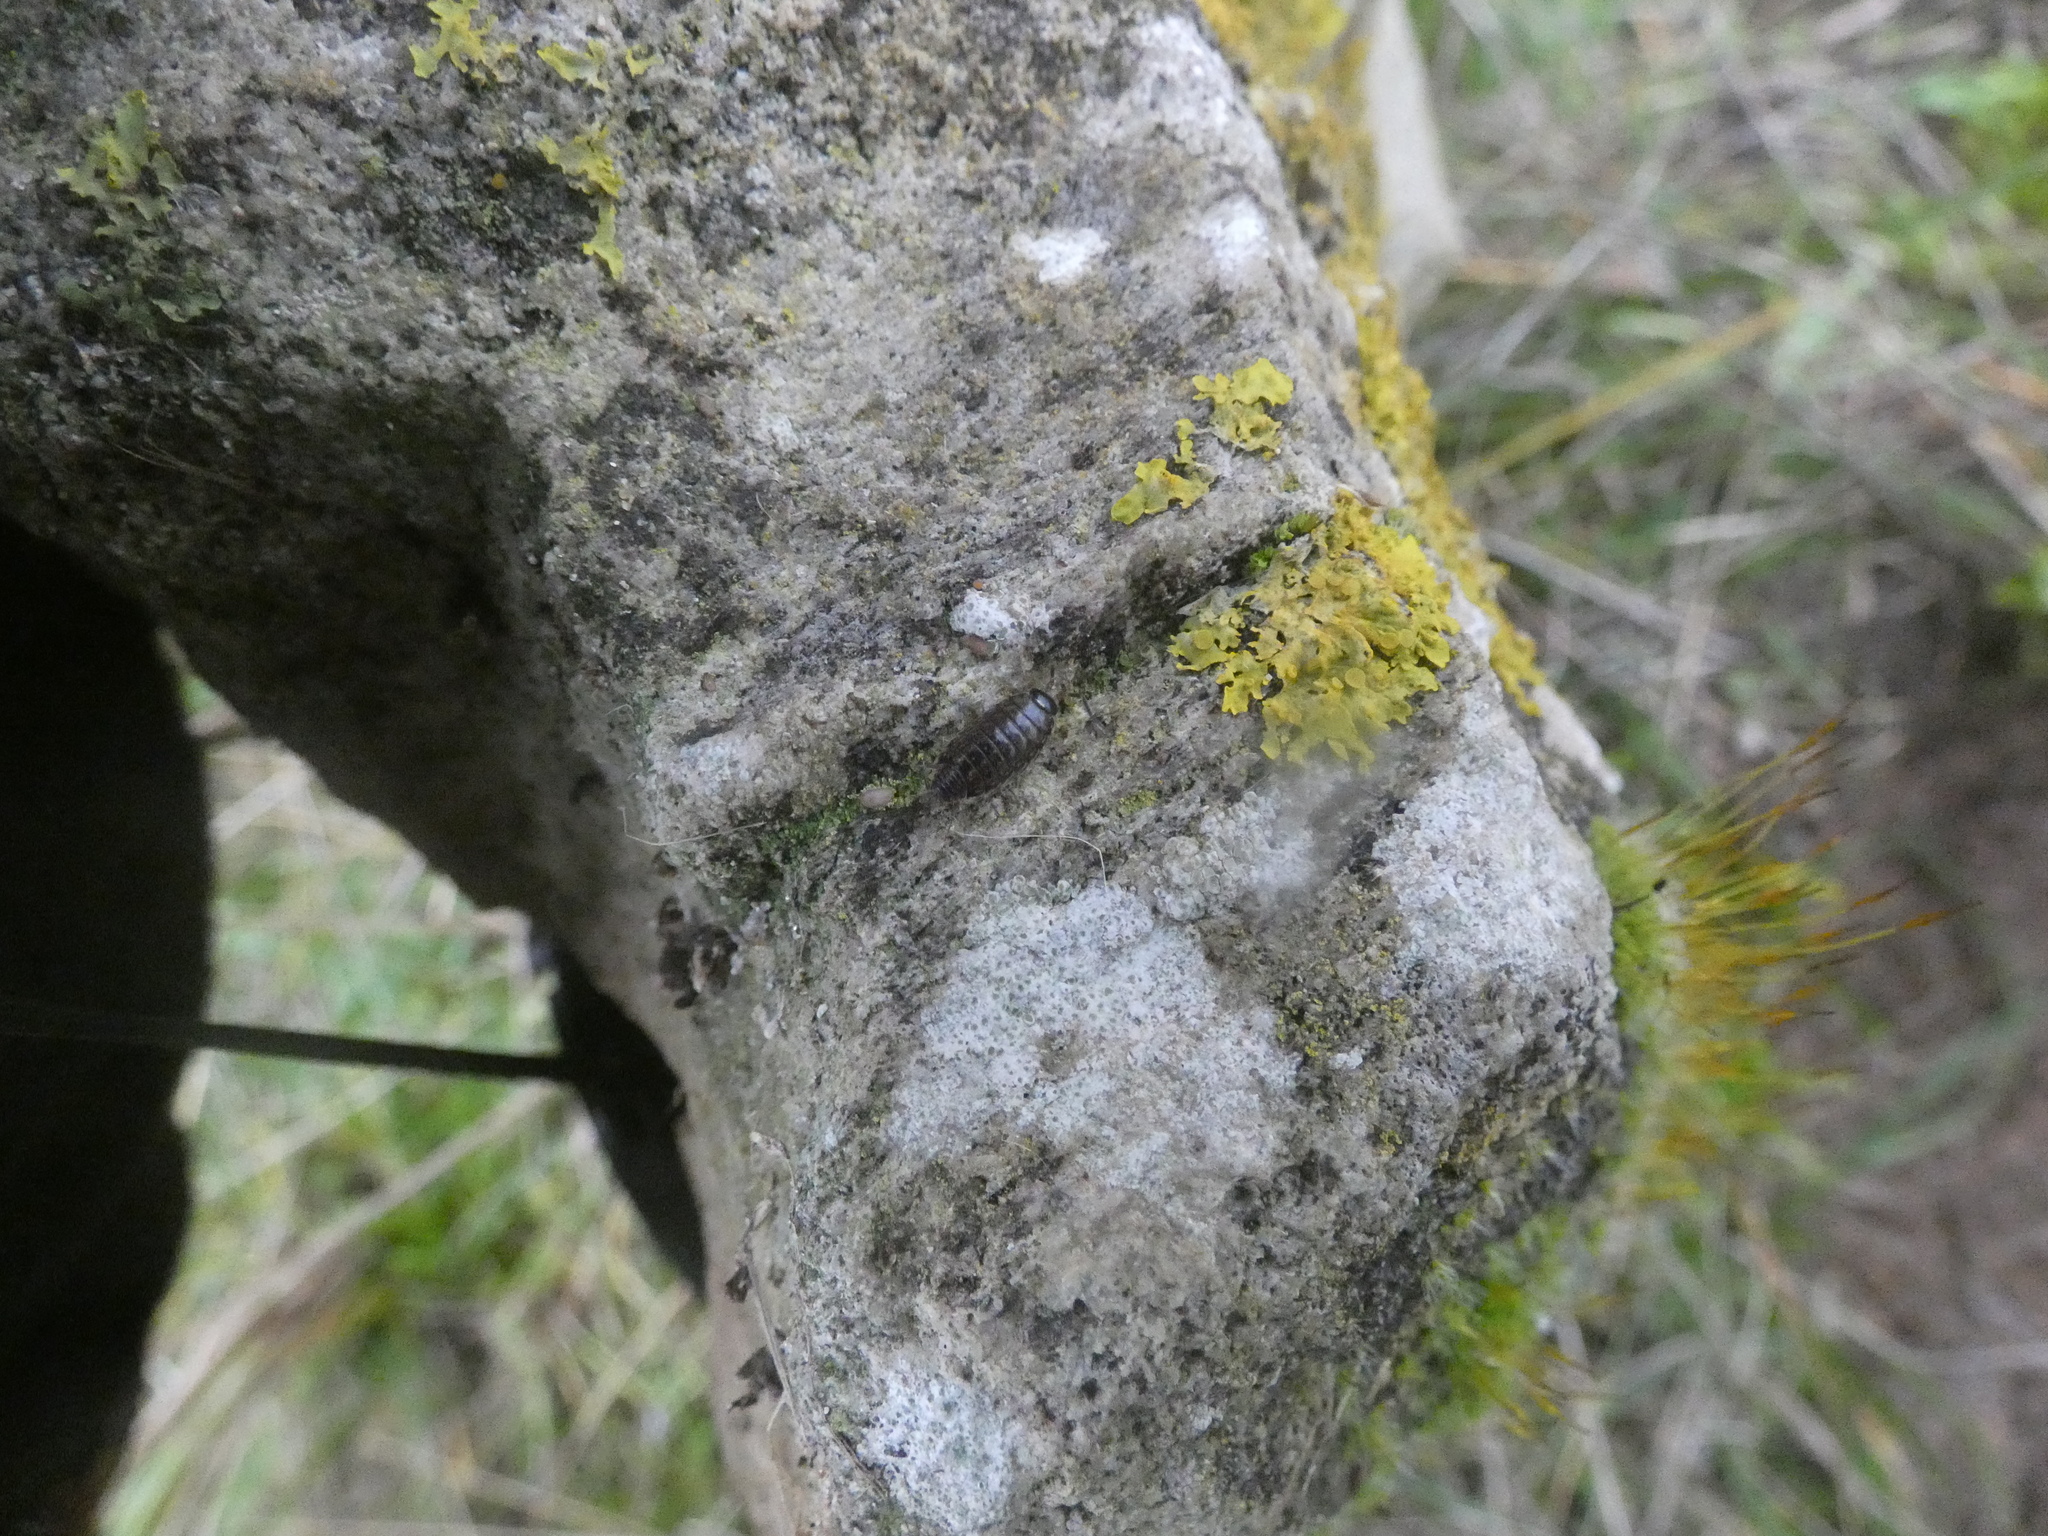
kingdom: Animalia
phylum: Arthropoda
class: Malacostraca
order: Isopoda
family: Philosciidae
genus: Philoscia
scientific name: Philoscia muscorum
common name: Common striped woodlouse
